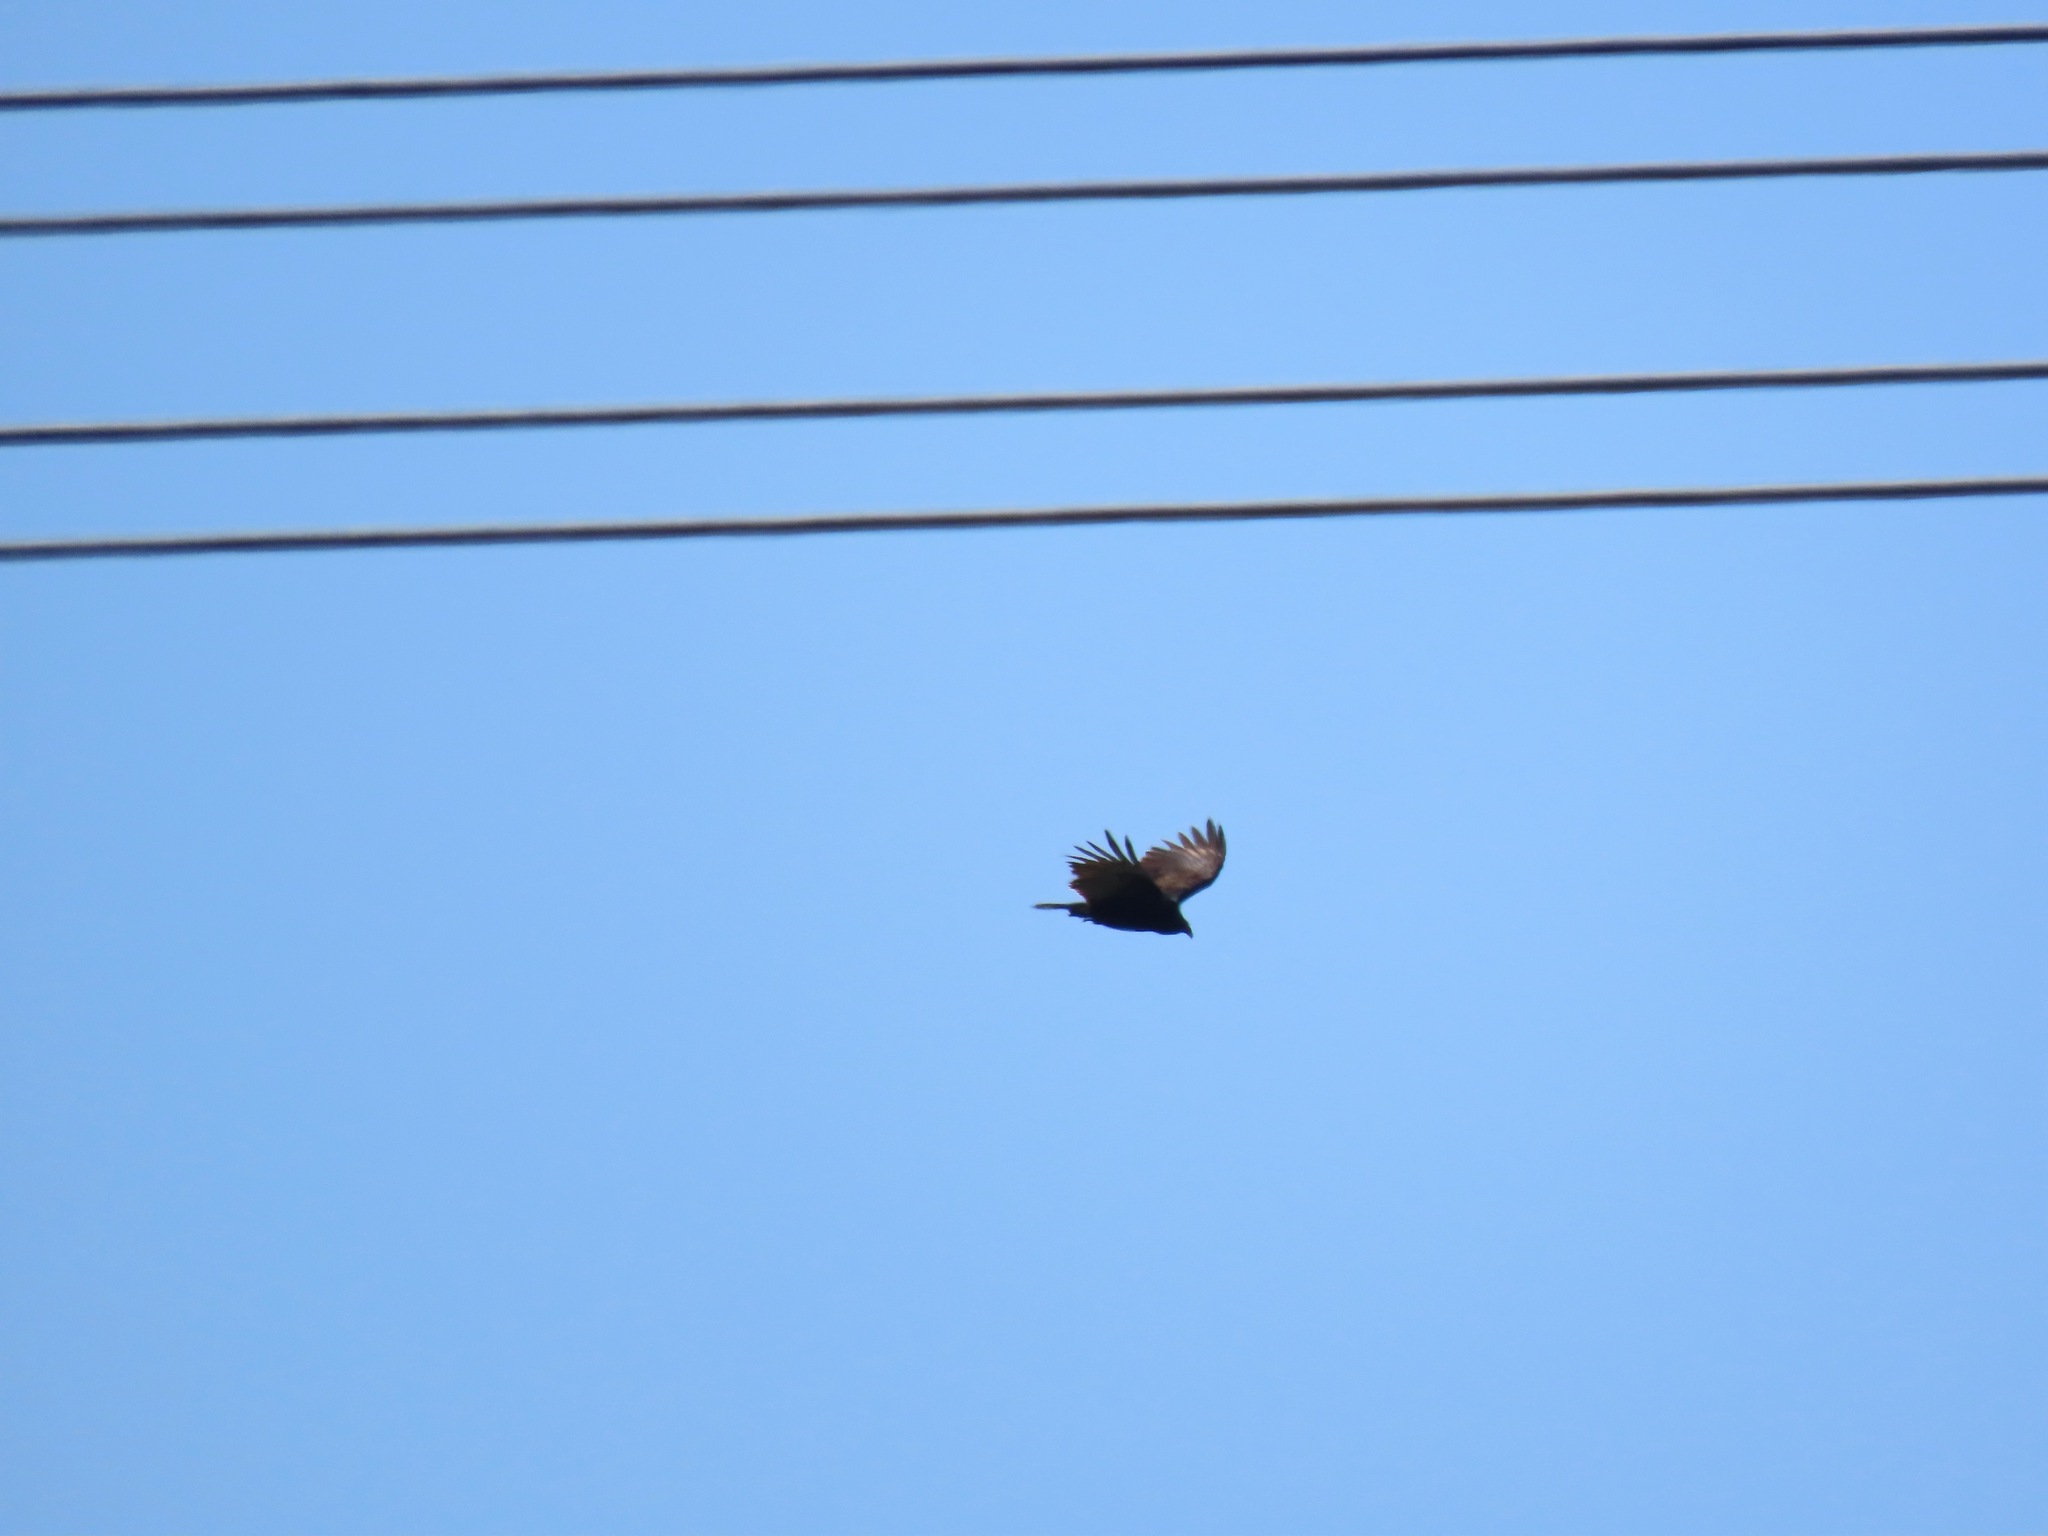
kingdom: Animalia
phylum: Chordata
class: Aves
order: Accipitriformes
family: Cathartidae
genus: Cathartes
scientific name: Cathartes aura
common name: Turkey vulture
